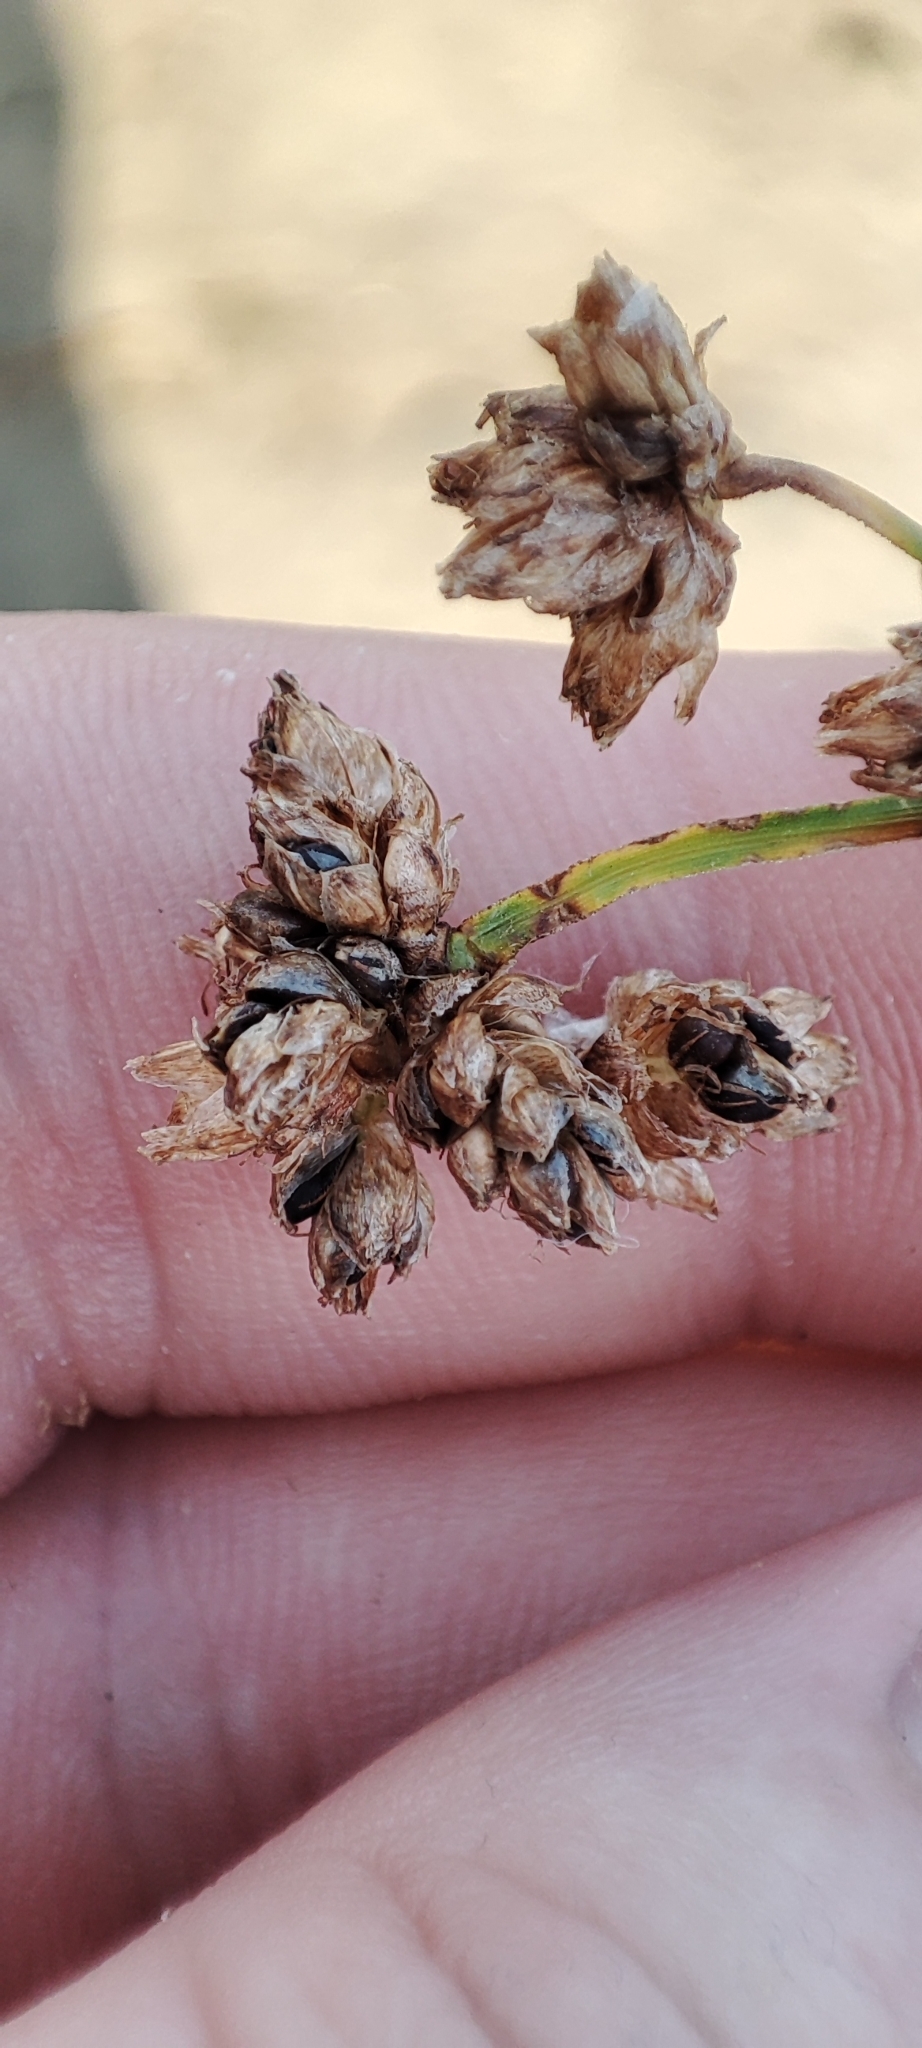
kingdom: Plantae
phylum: Tracheophyta
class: Liliopsida
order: Poales
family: Cyperaceae
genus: Schoenoplectus
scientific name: Schoenoplectus lacustris
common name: Common club-rush
